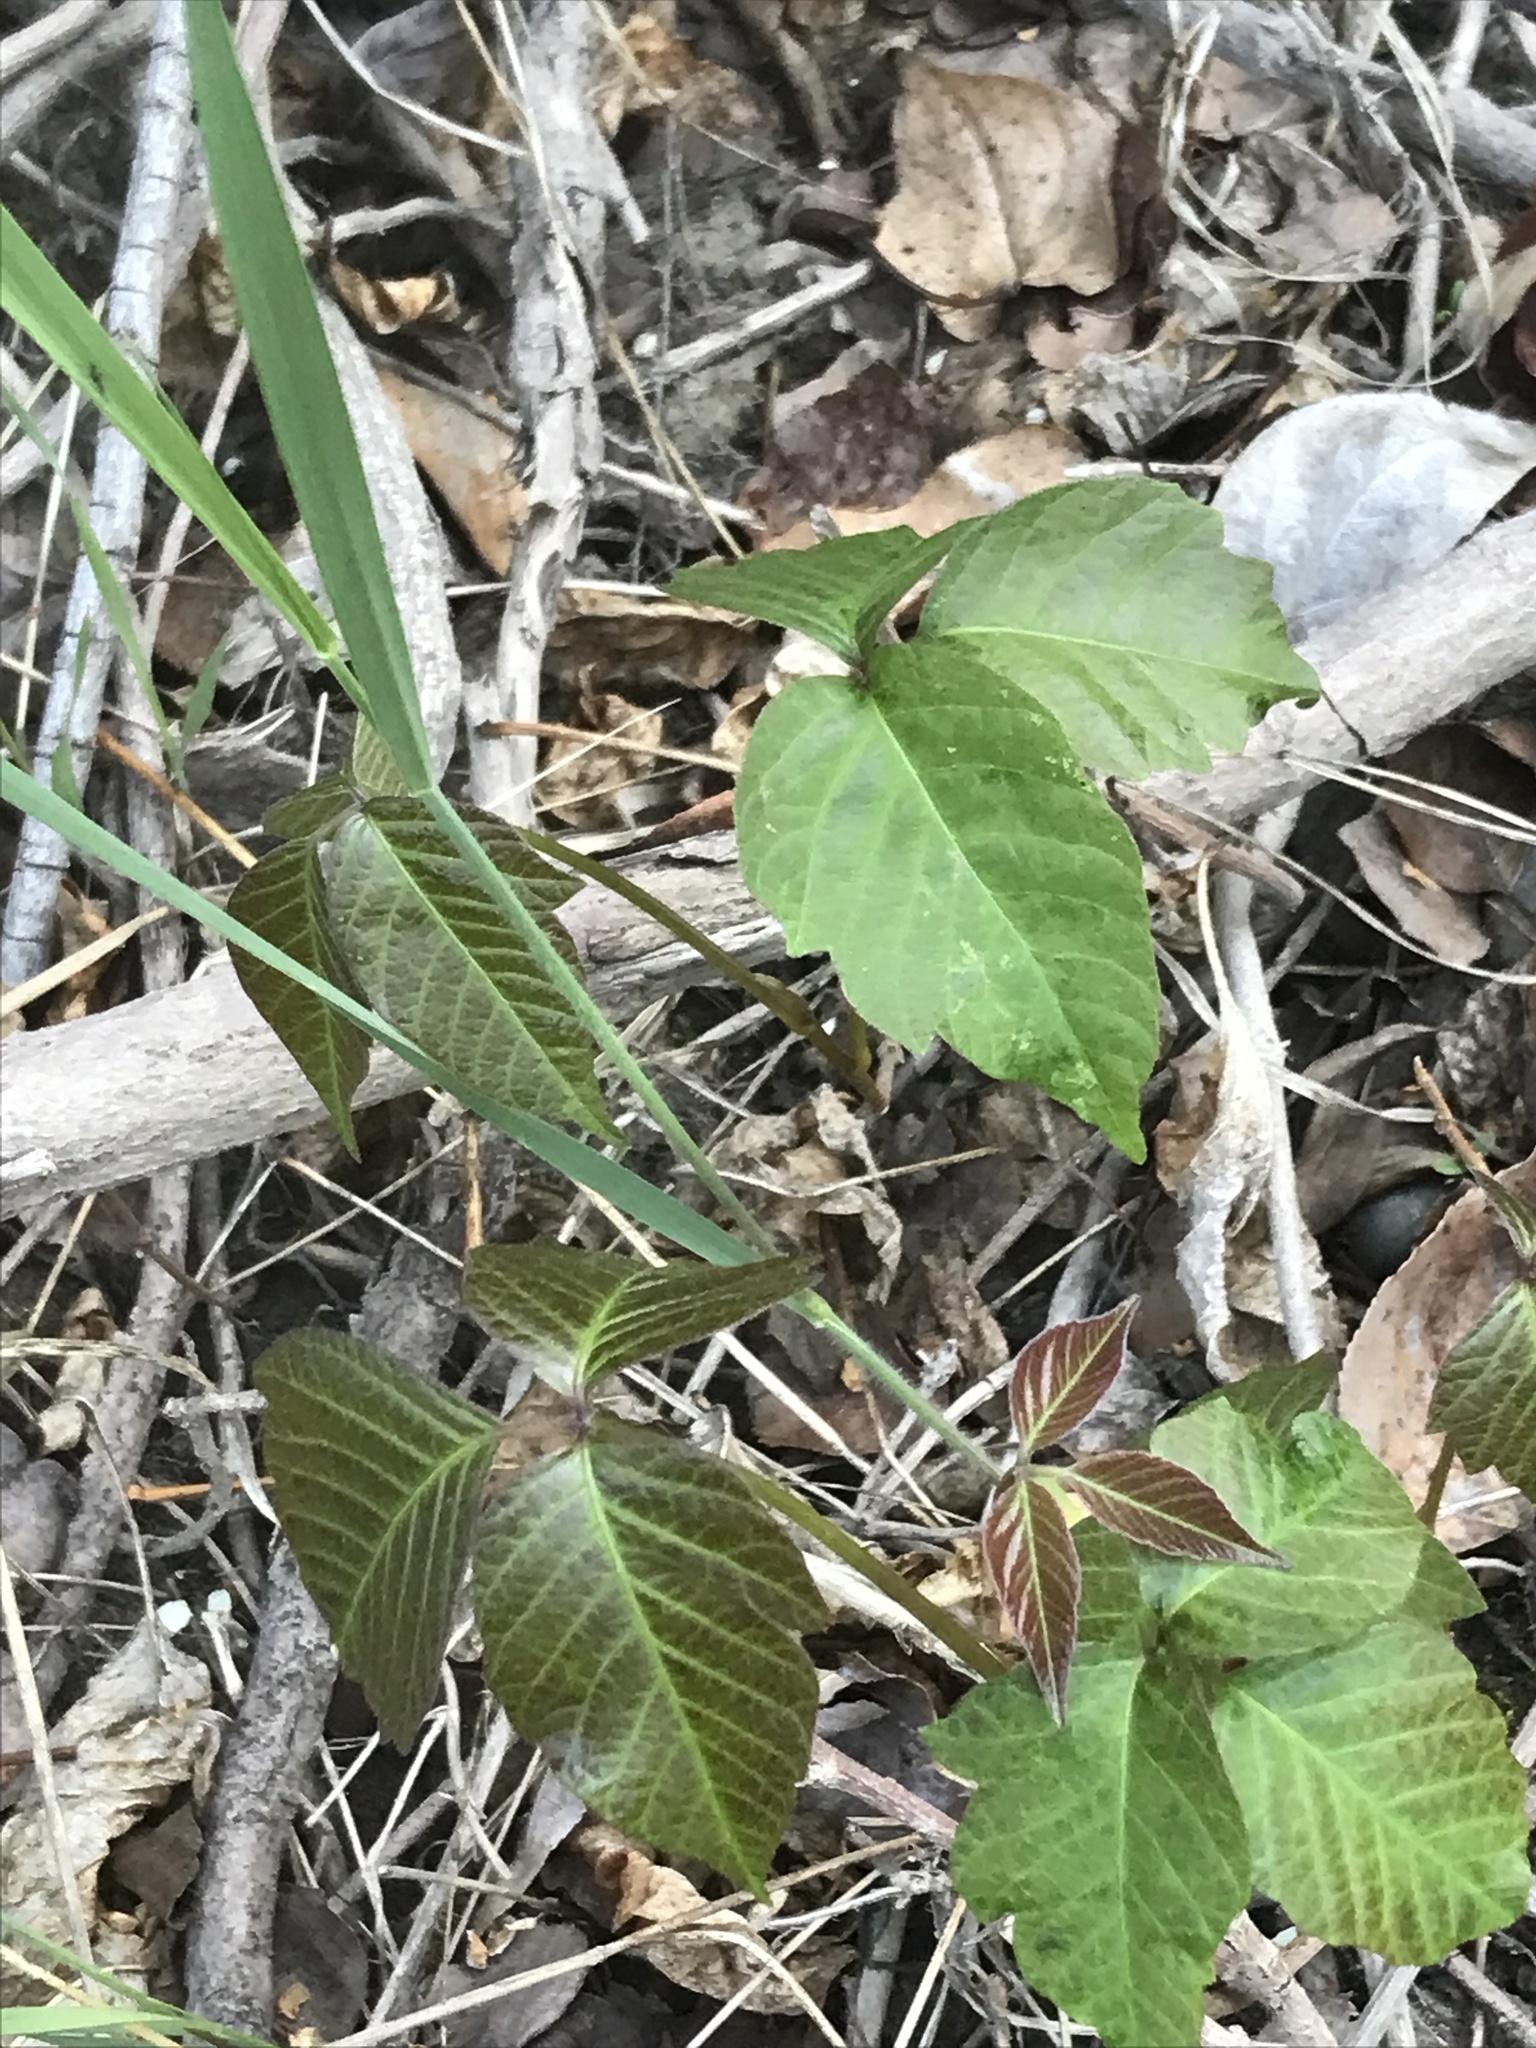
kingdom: Plantae
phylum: Tracheophyta
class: Magnoliopsida
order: Sapindales
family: Anacardiaceae
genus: Toxicodendron
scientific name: Toxicodendron rydbergii
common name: Rydberg's poison-ivy
